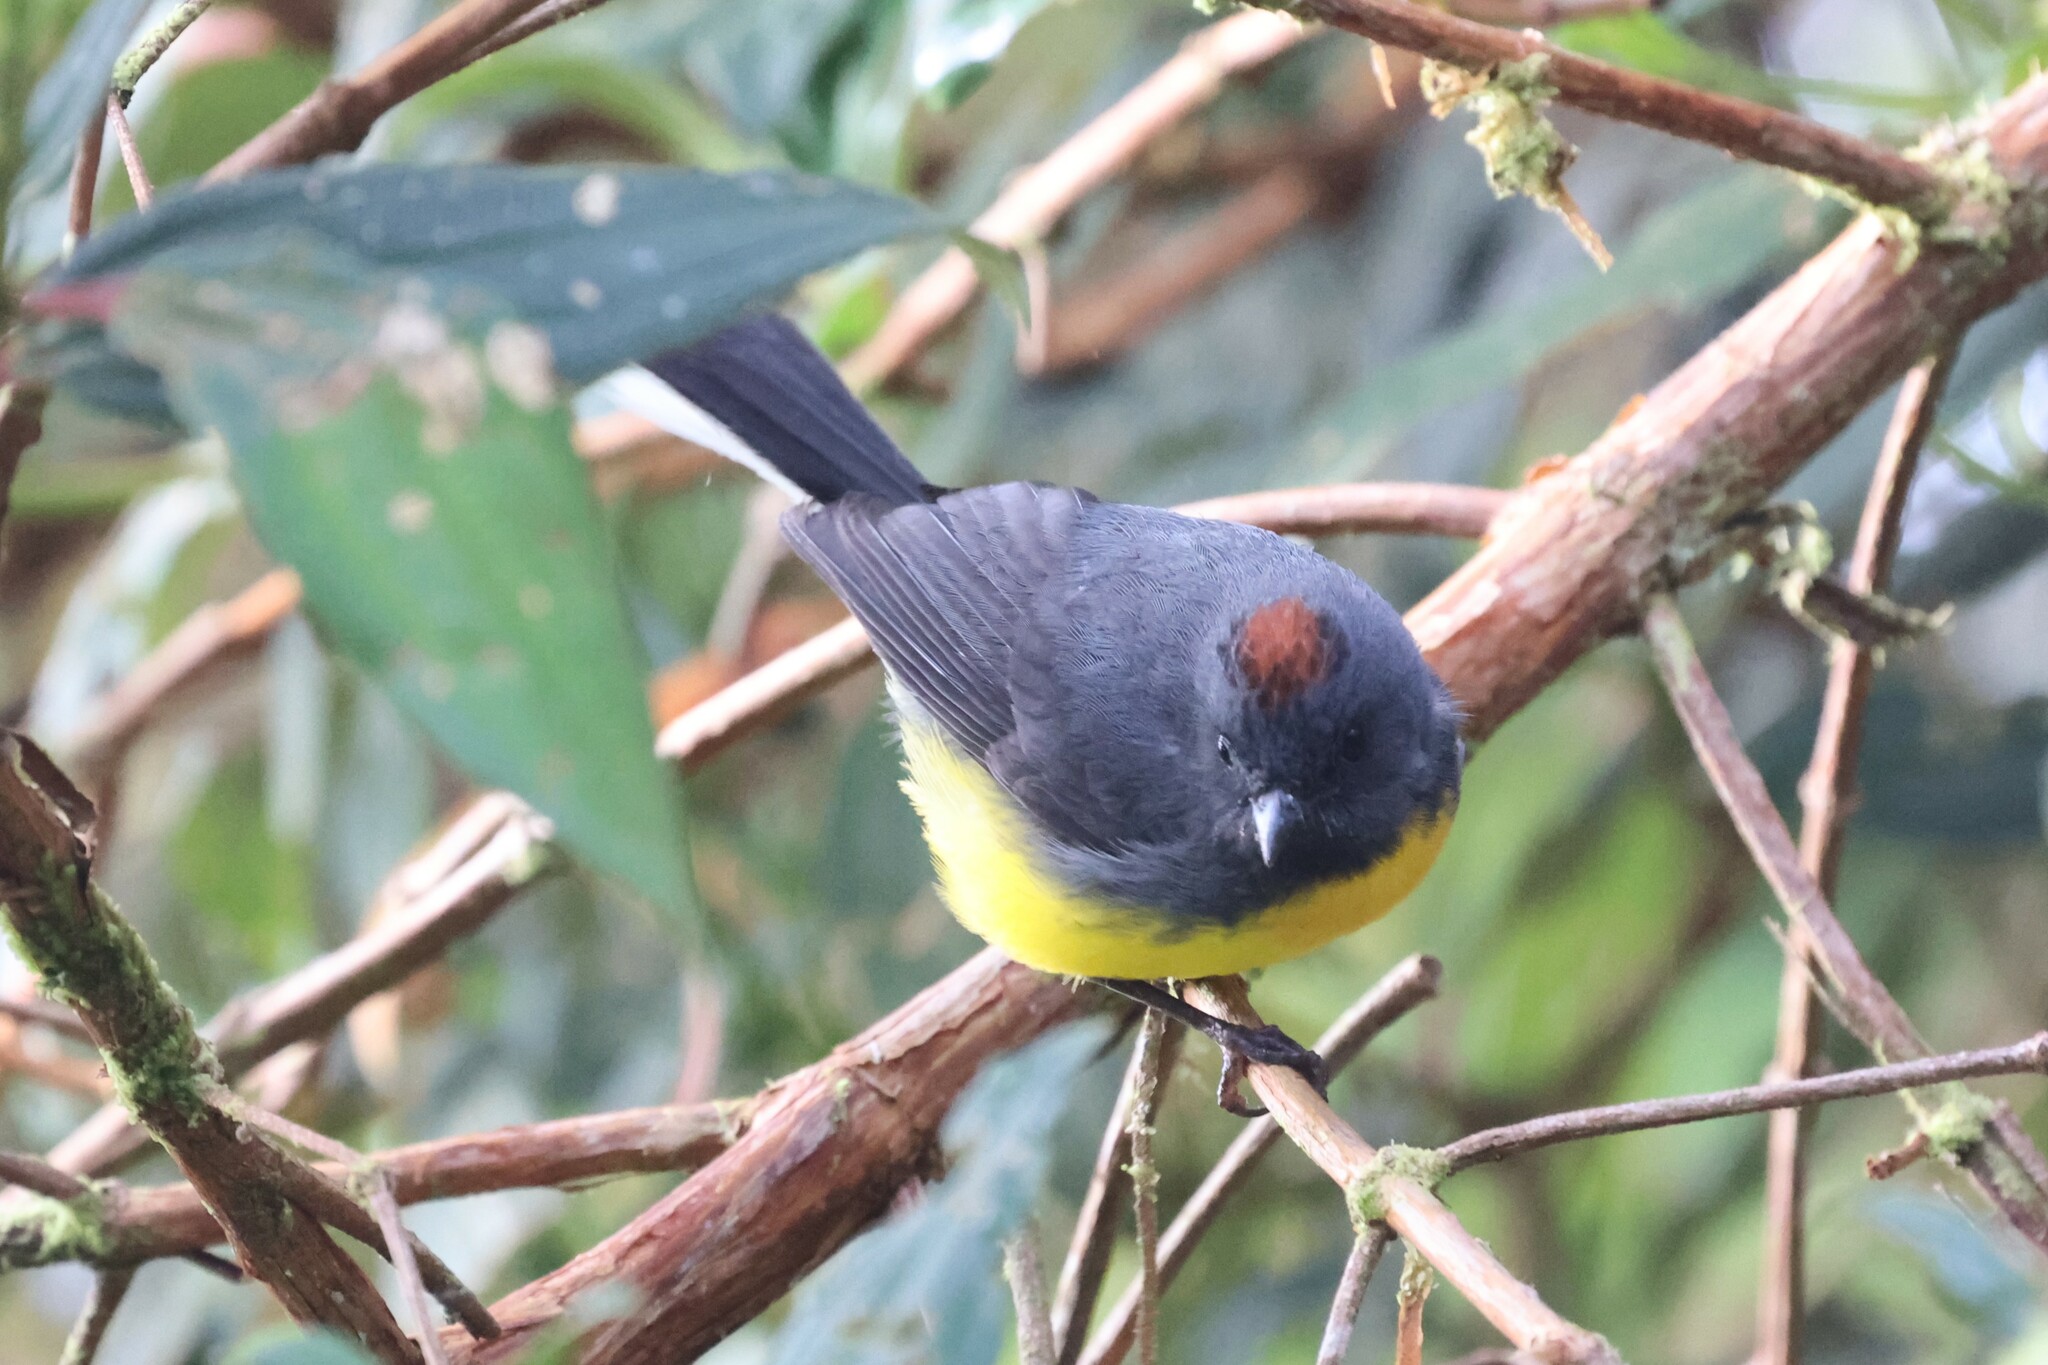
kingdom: Animalia
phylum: Chordata
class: Aves
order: Passeriformes
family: Parulidae
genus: Myioborus
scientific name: Myioborus miniatus
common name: Slate-throated redstart
